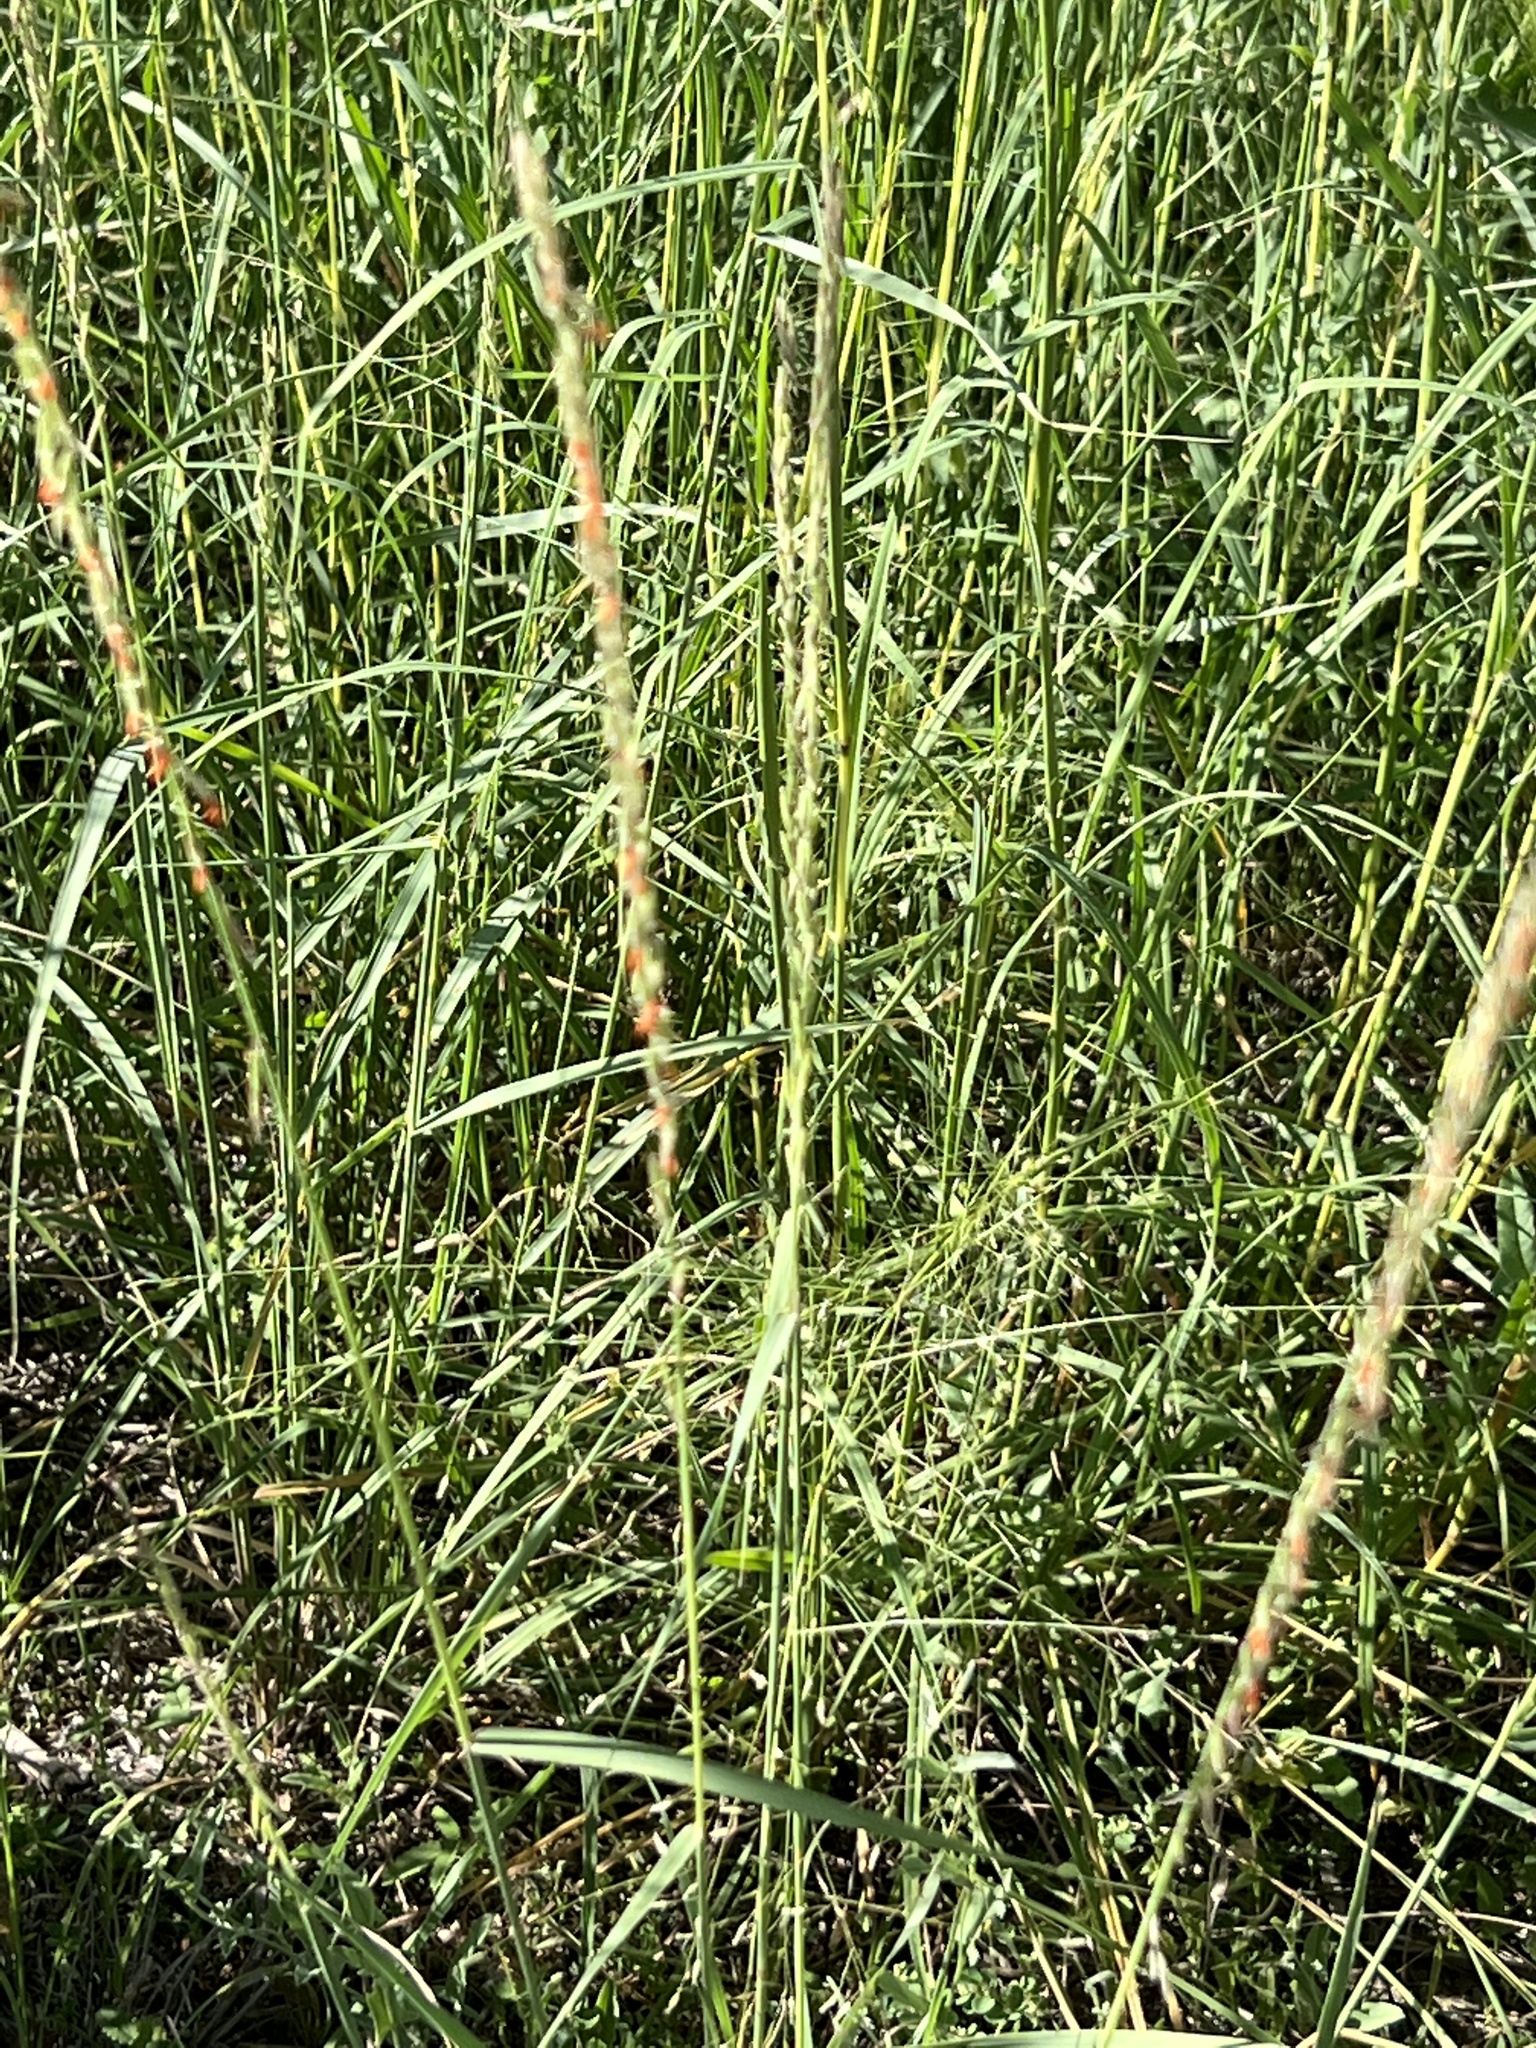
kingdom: Plantae
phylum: Tracheophyta
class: Liliopsida
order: Poales
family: Poaceae
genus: Bouteloua
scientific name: Bouteloua curtipendula
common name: Side-oats grama
